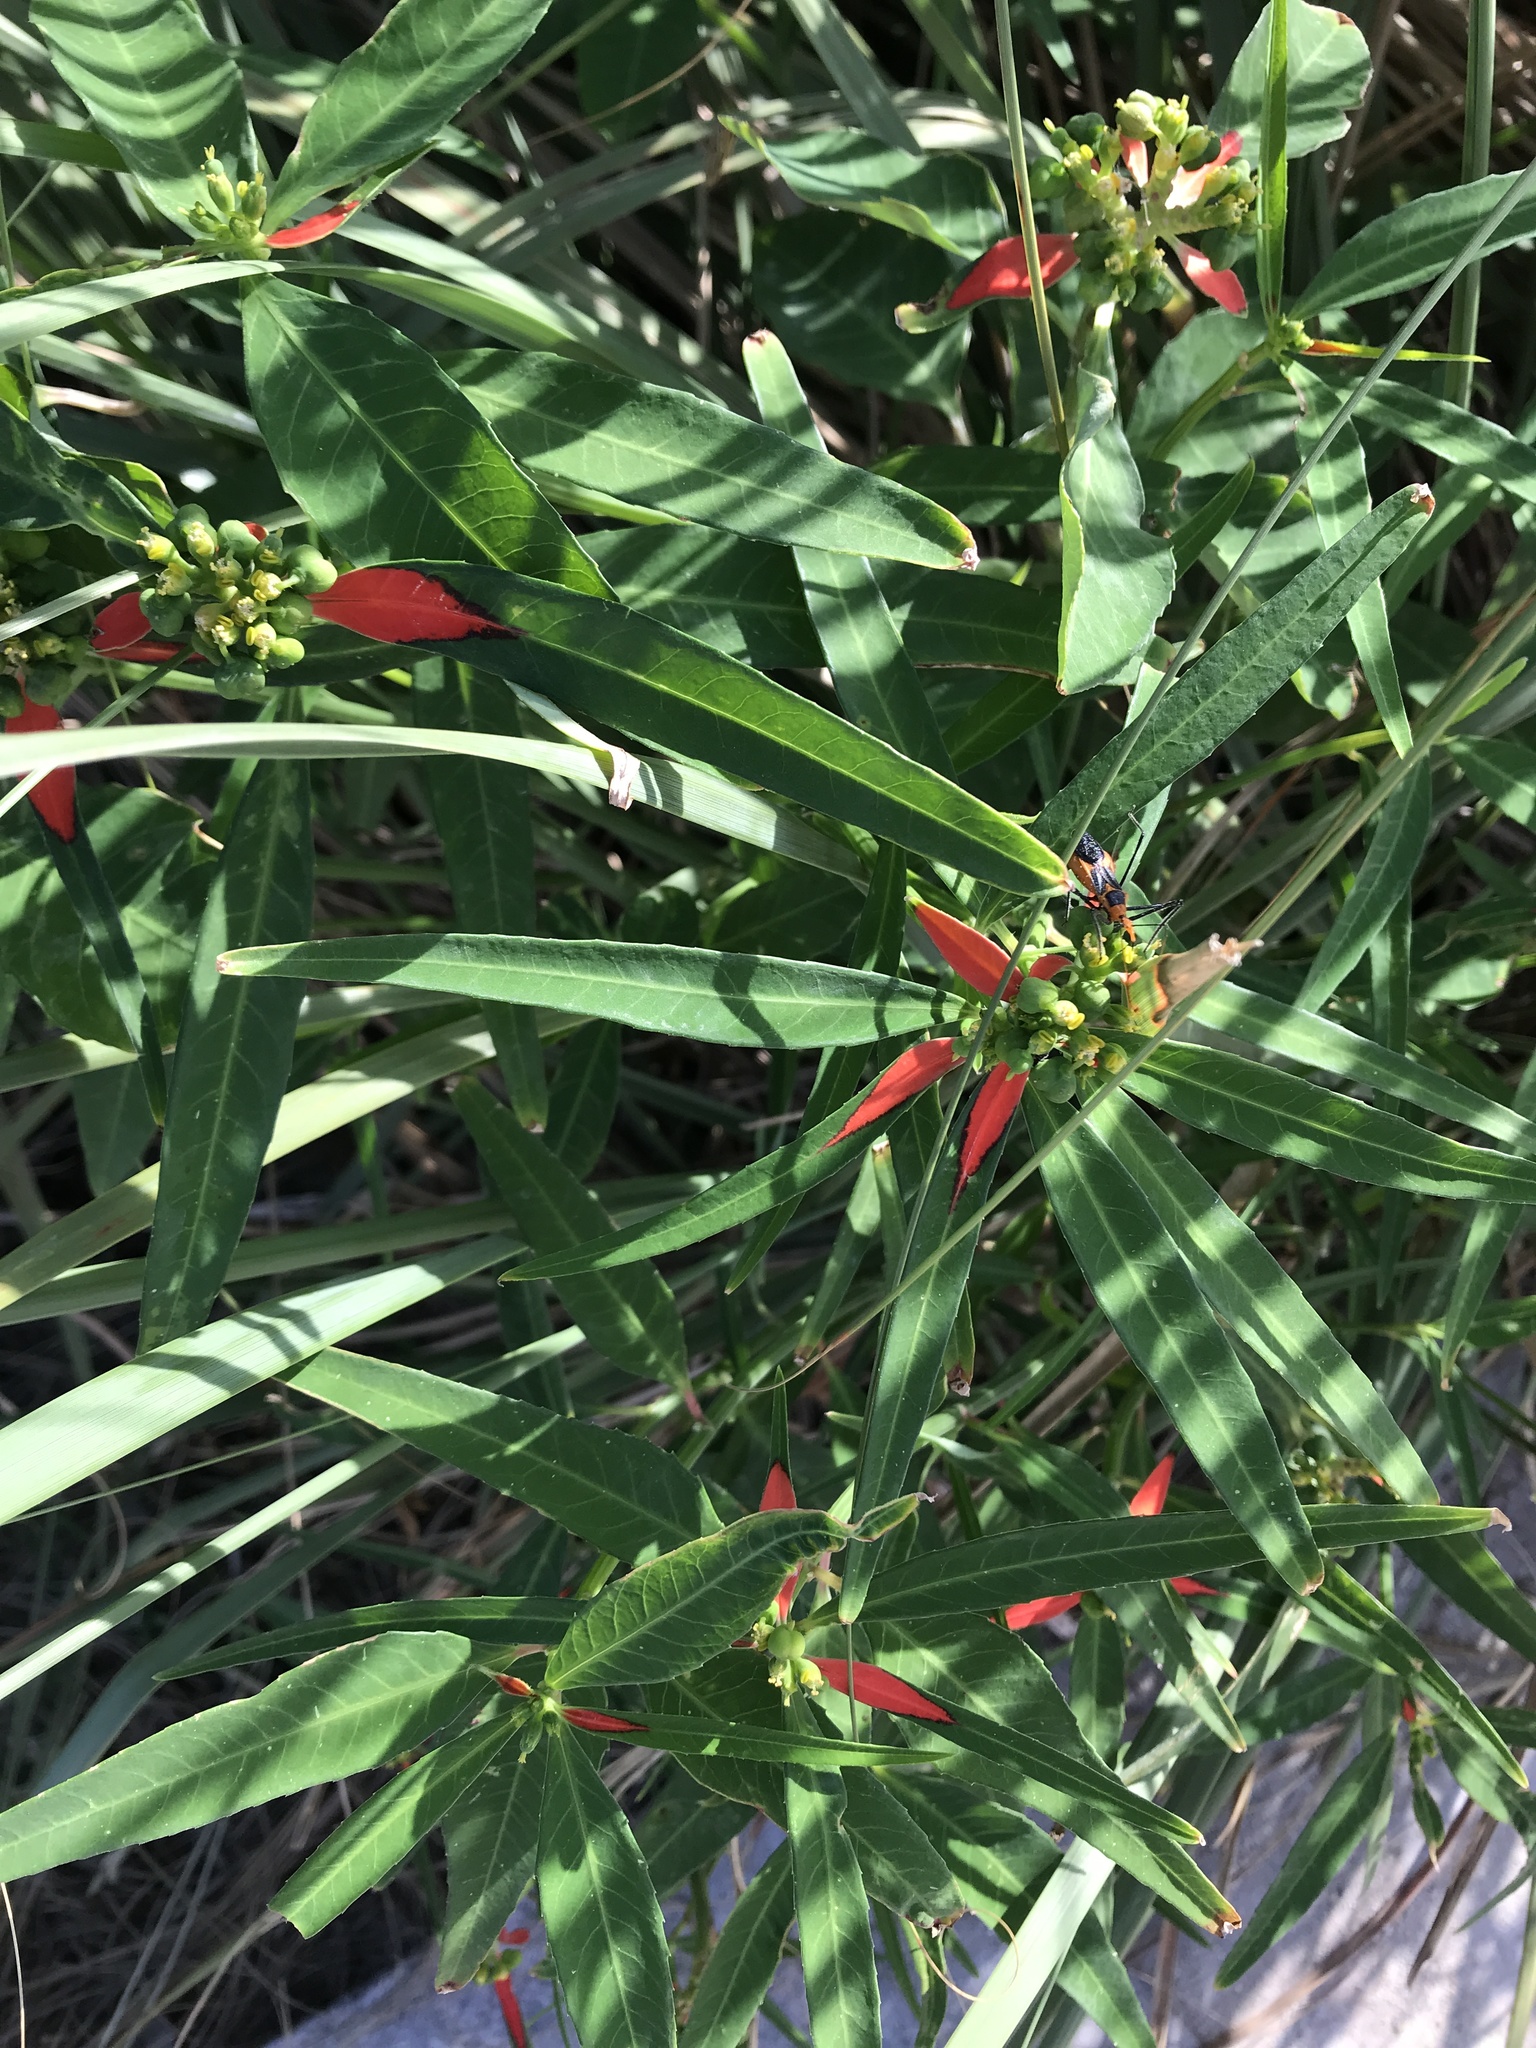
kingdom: Plantae
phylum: Tracheophyta
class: Magnoliopsida
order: Malpighiales
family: Euphorbiaceae
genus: Euphorbia
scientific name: Euphorbia heterophylla
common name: Mexican fireplant
